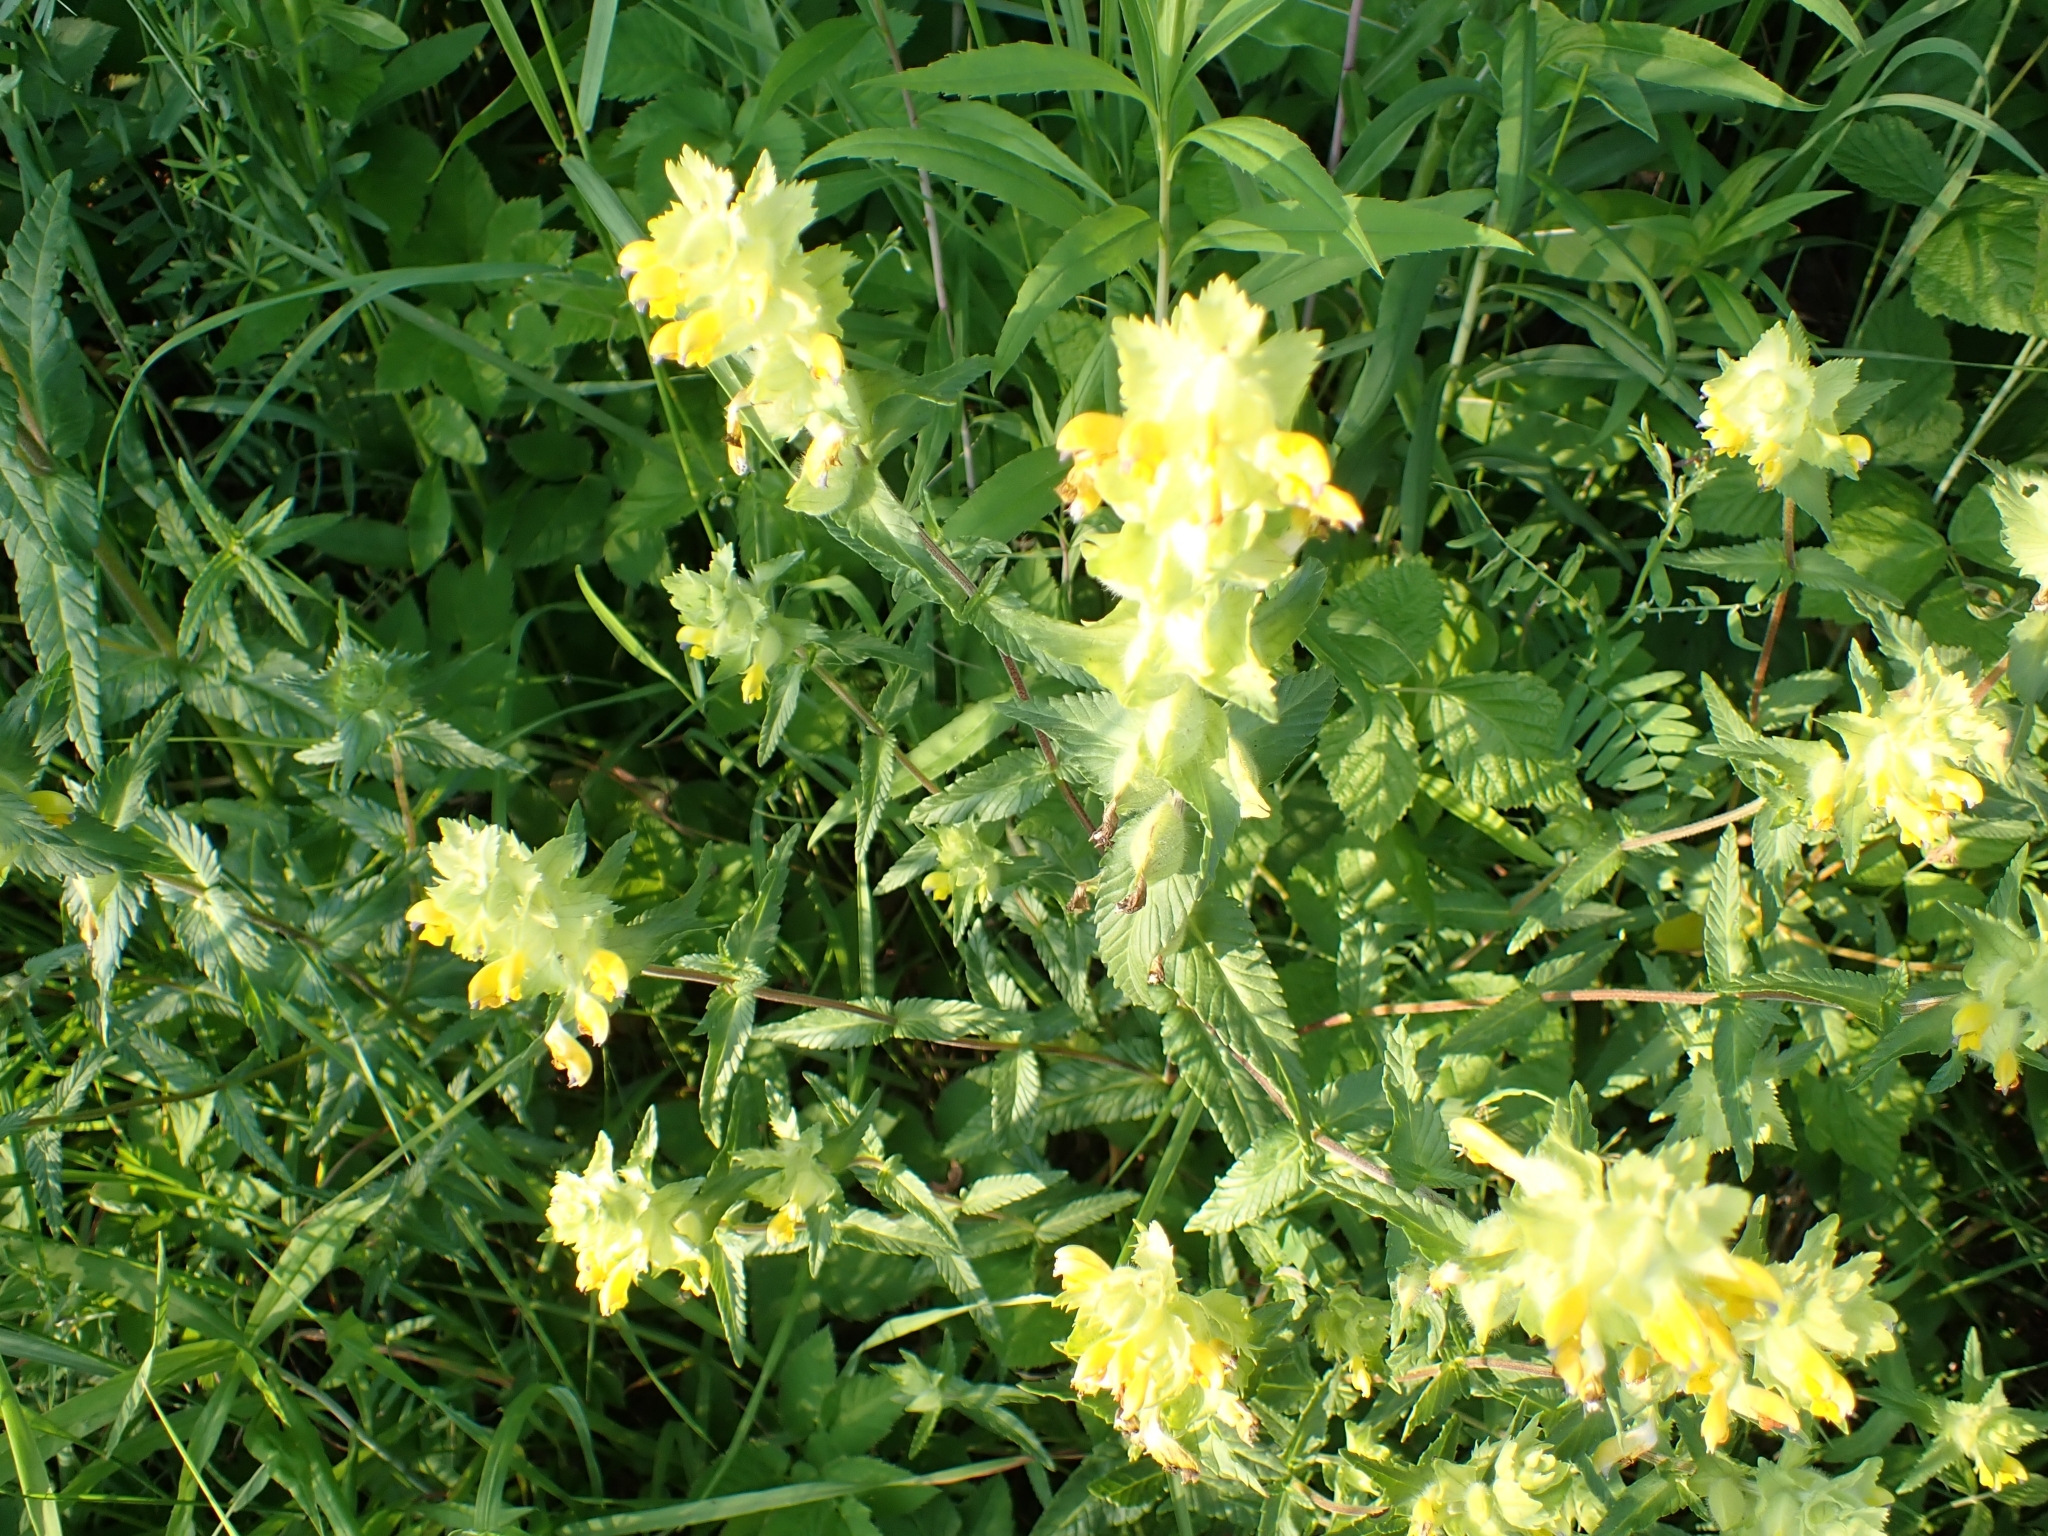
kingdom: Plantae
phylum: Tracheophyta
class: Magnoliopsida
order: Lamiales
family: Orobanchaceae
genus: Rhinanthus
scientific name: Rhinanthus alectorolophus
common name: Greater yellow-rattle
